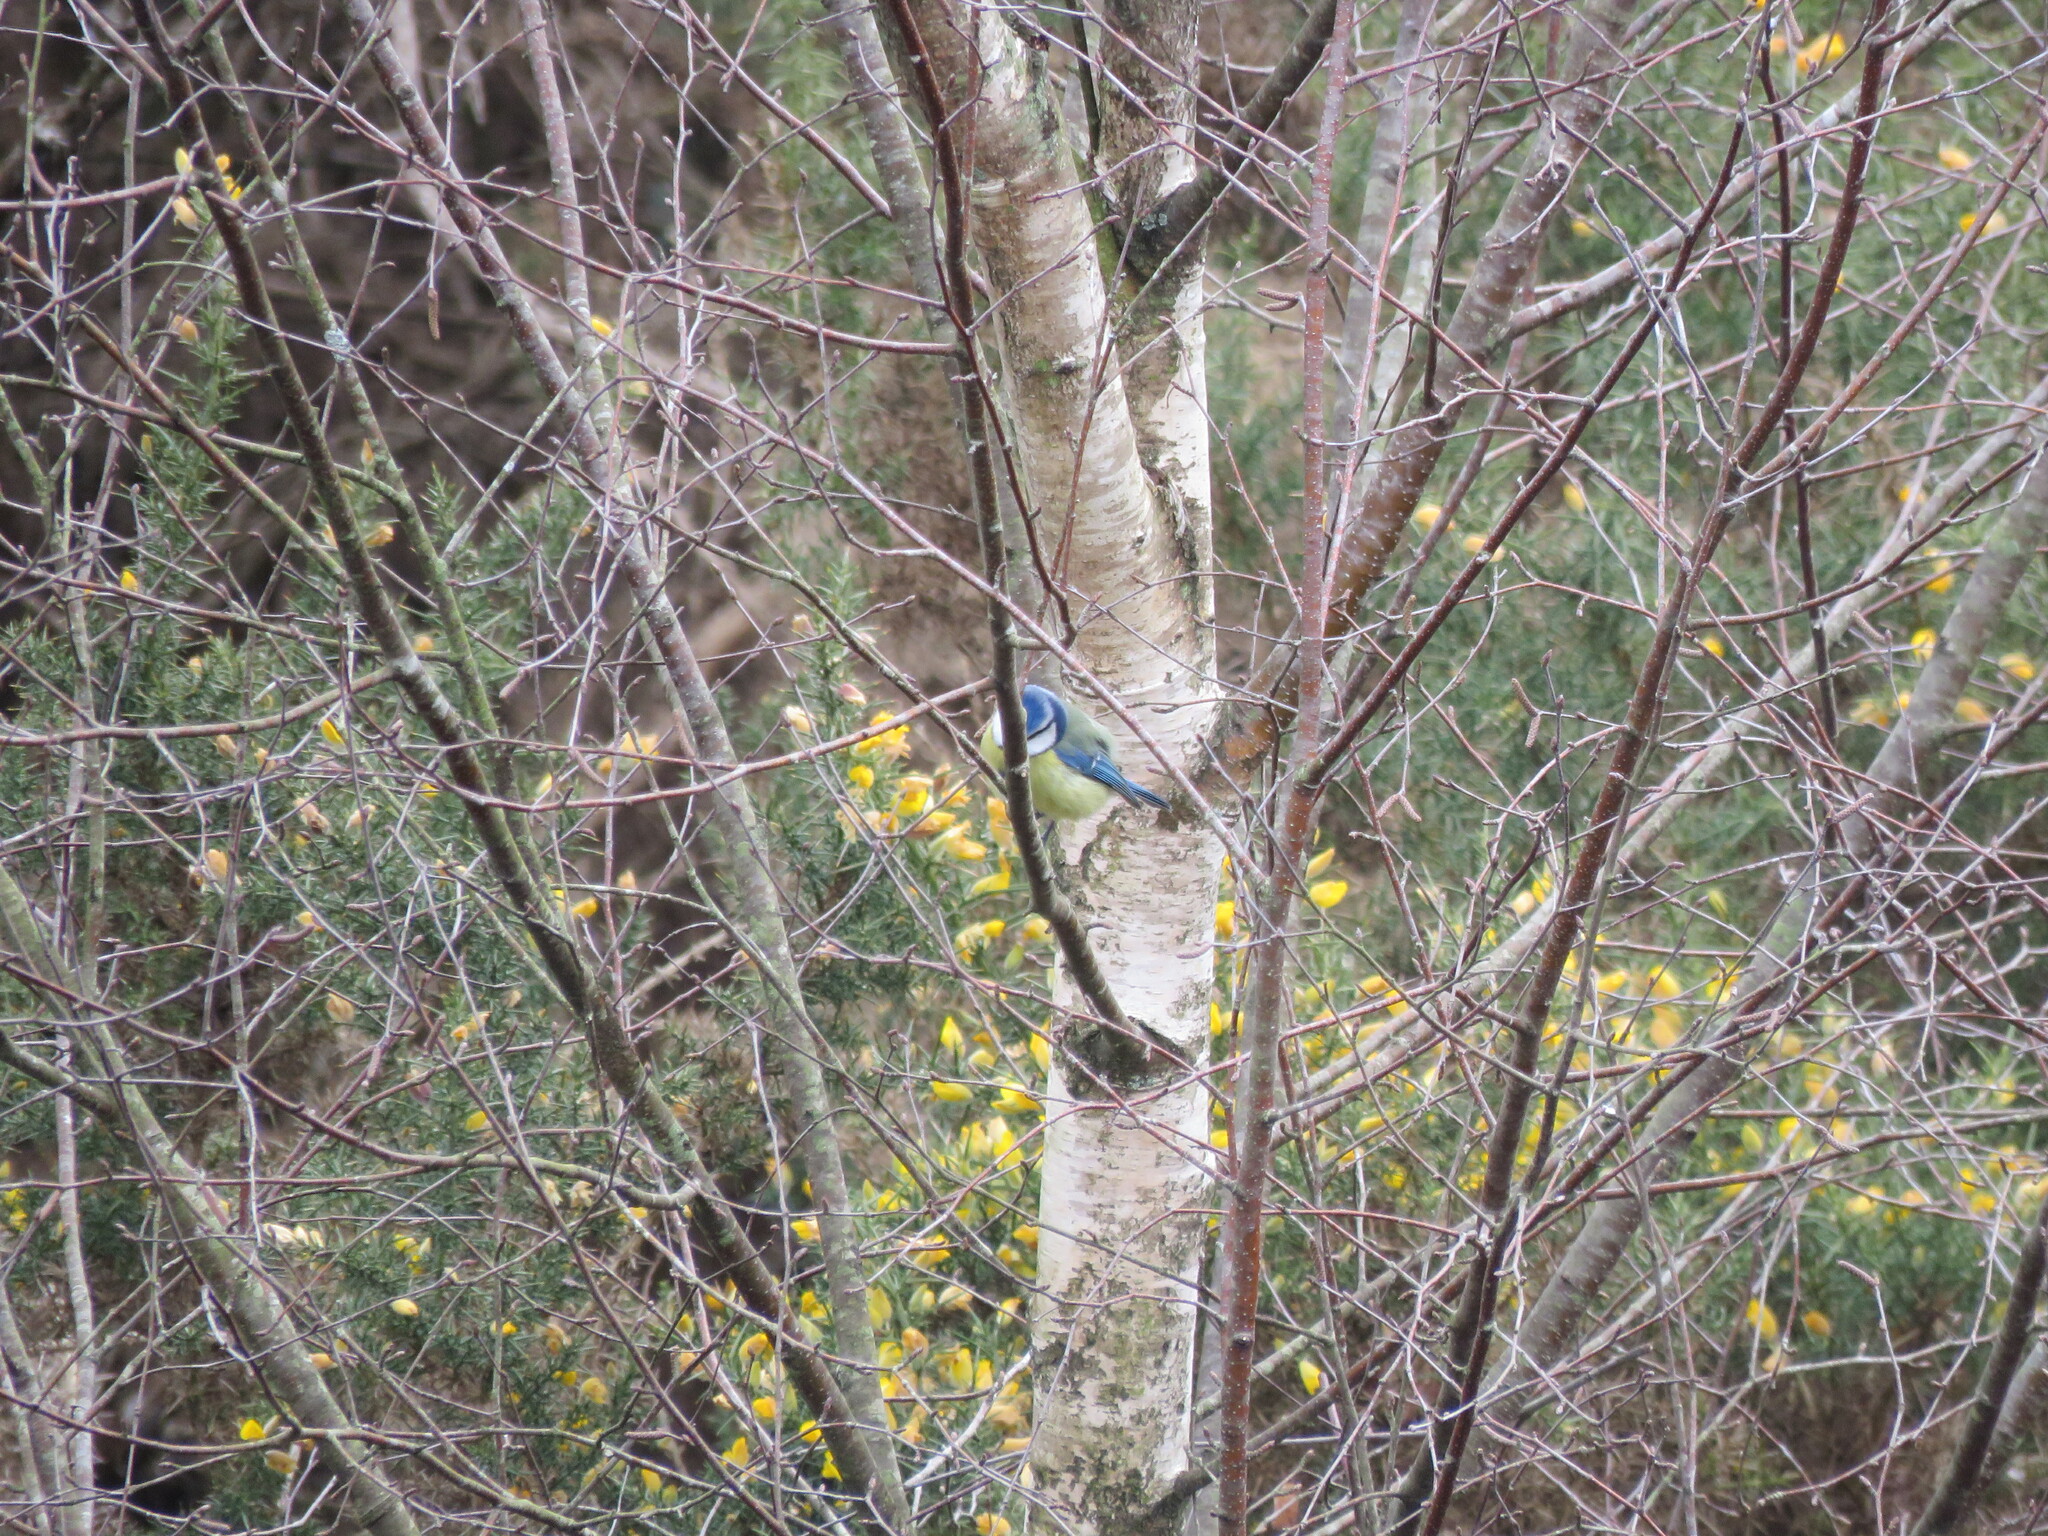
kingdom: Animalia
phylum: Chordata
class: Aves
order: Passeriformes
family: Paridae
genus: Cyanistes
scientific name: Cyanistes caeruleus
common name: Eurasian blue tit
